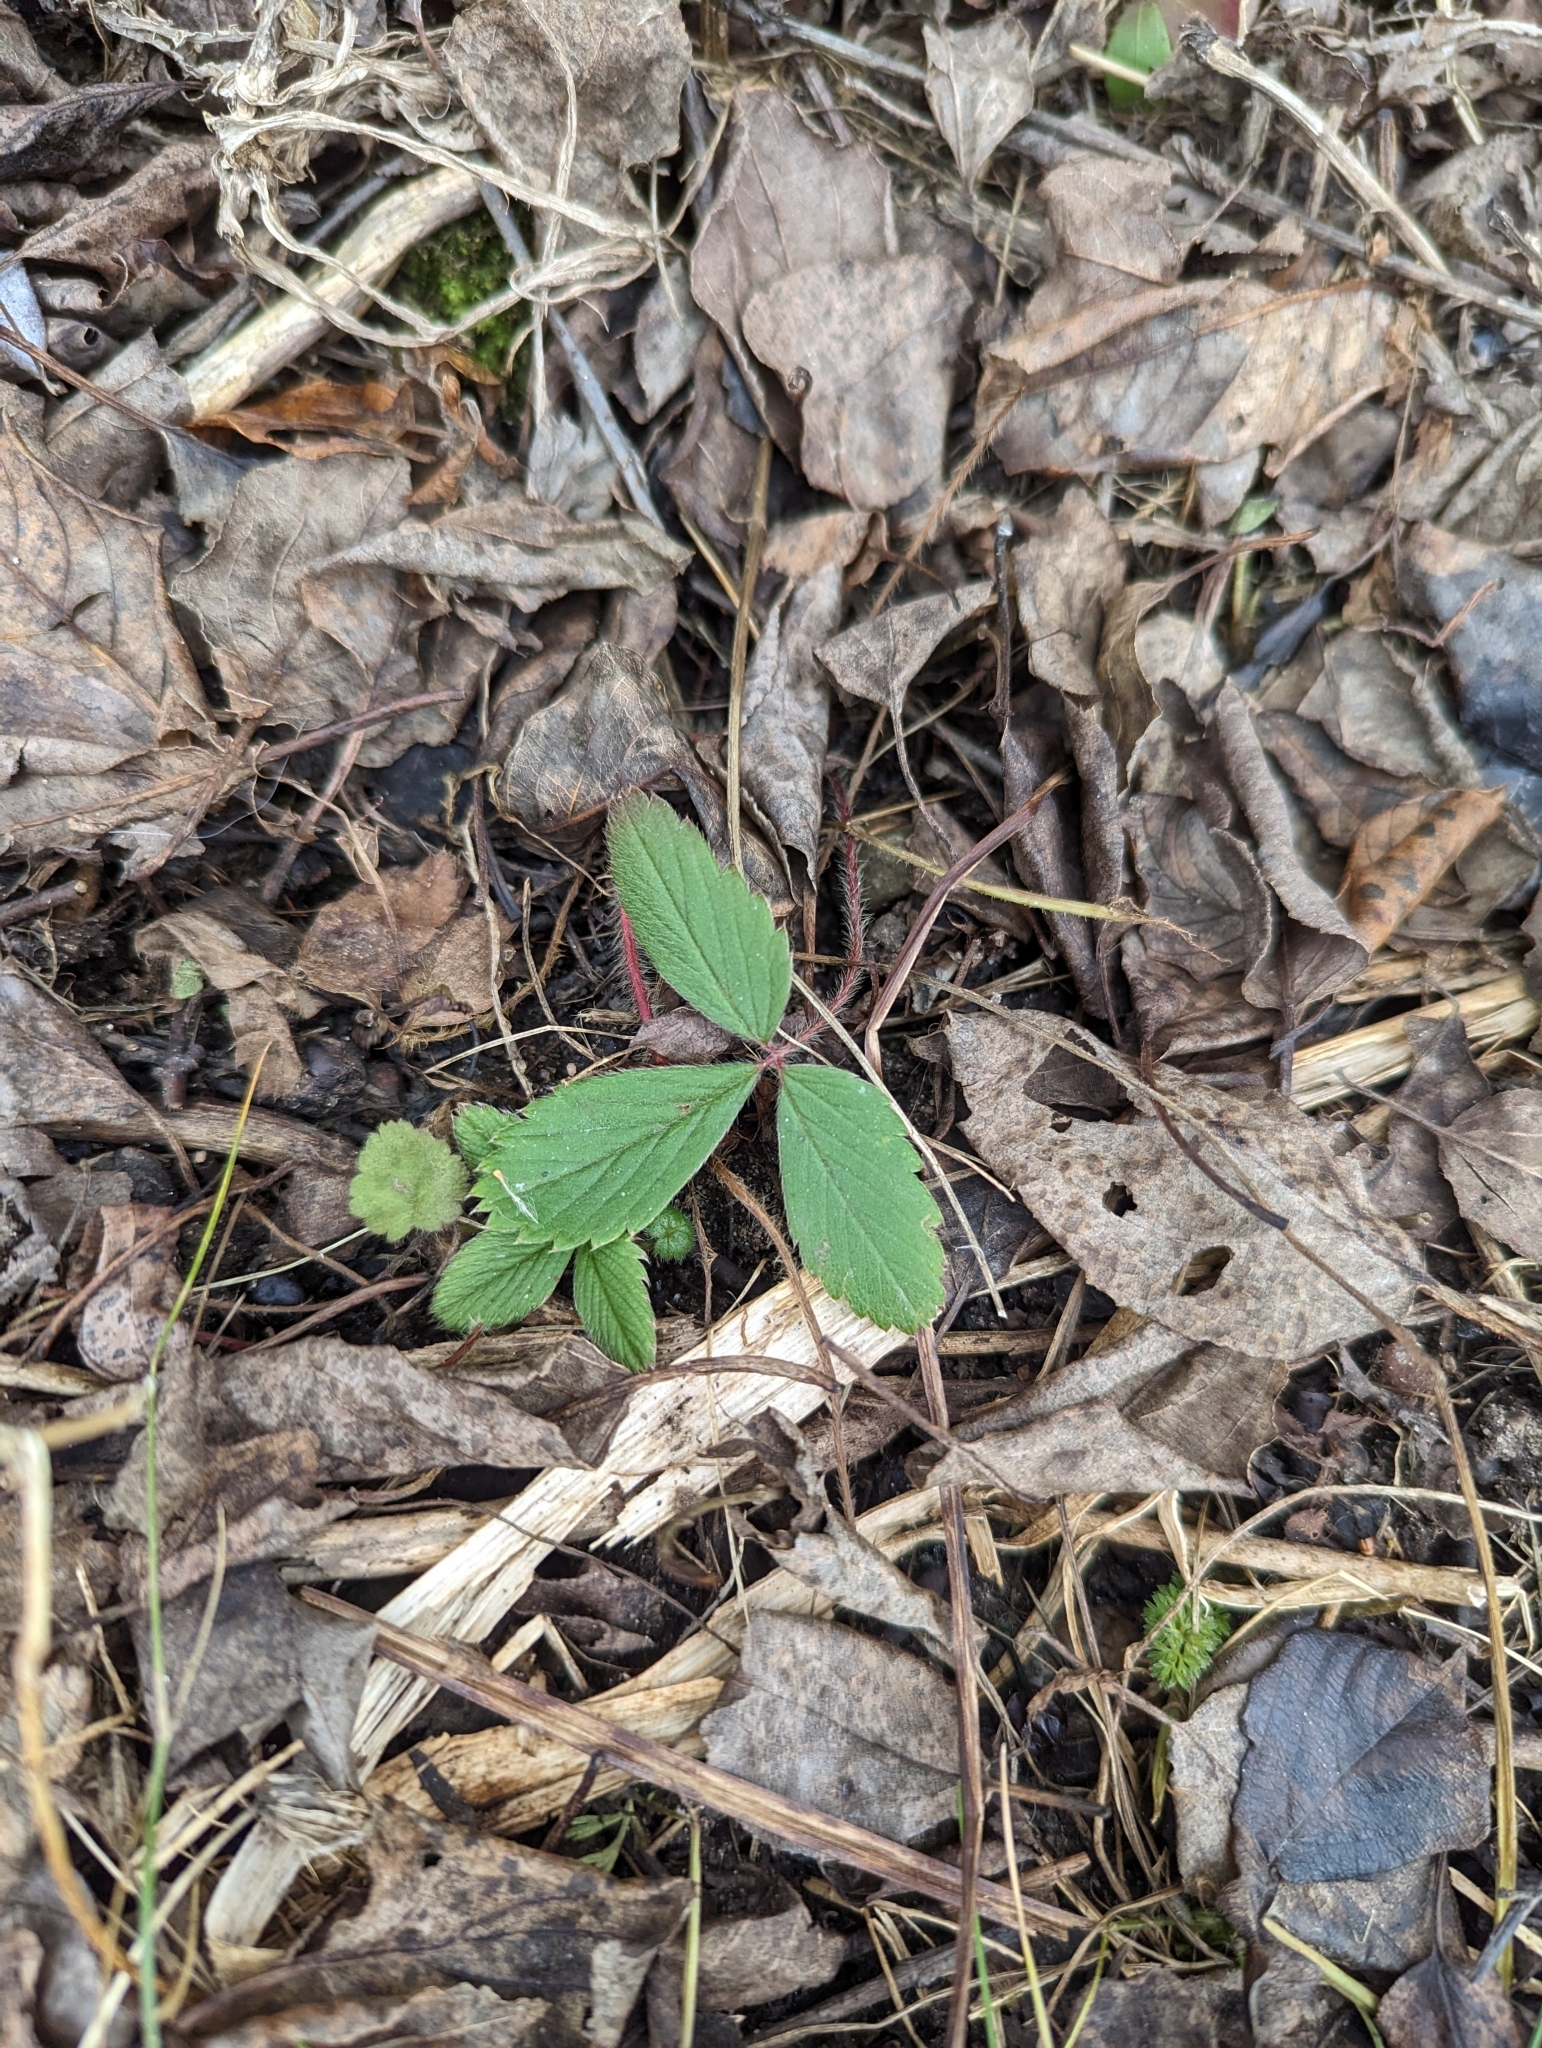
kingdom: Plantae
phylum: Tracheophyta
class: Magnoliopsida
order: Rosales
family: Rosaceae
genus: Fragaria
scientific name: Fragaria virginiana
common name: Thickleaved wild strawberry
